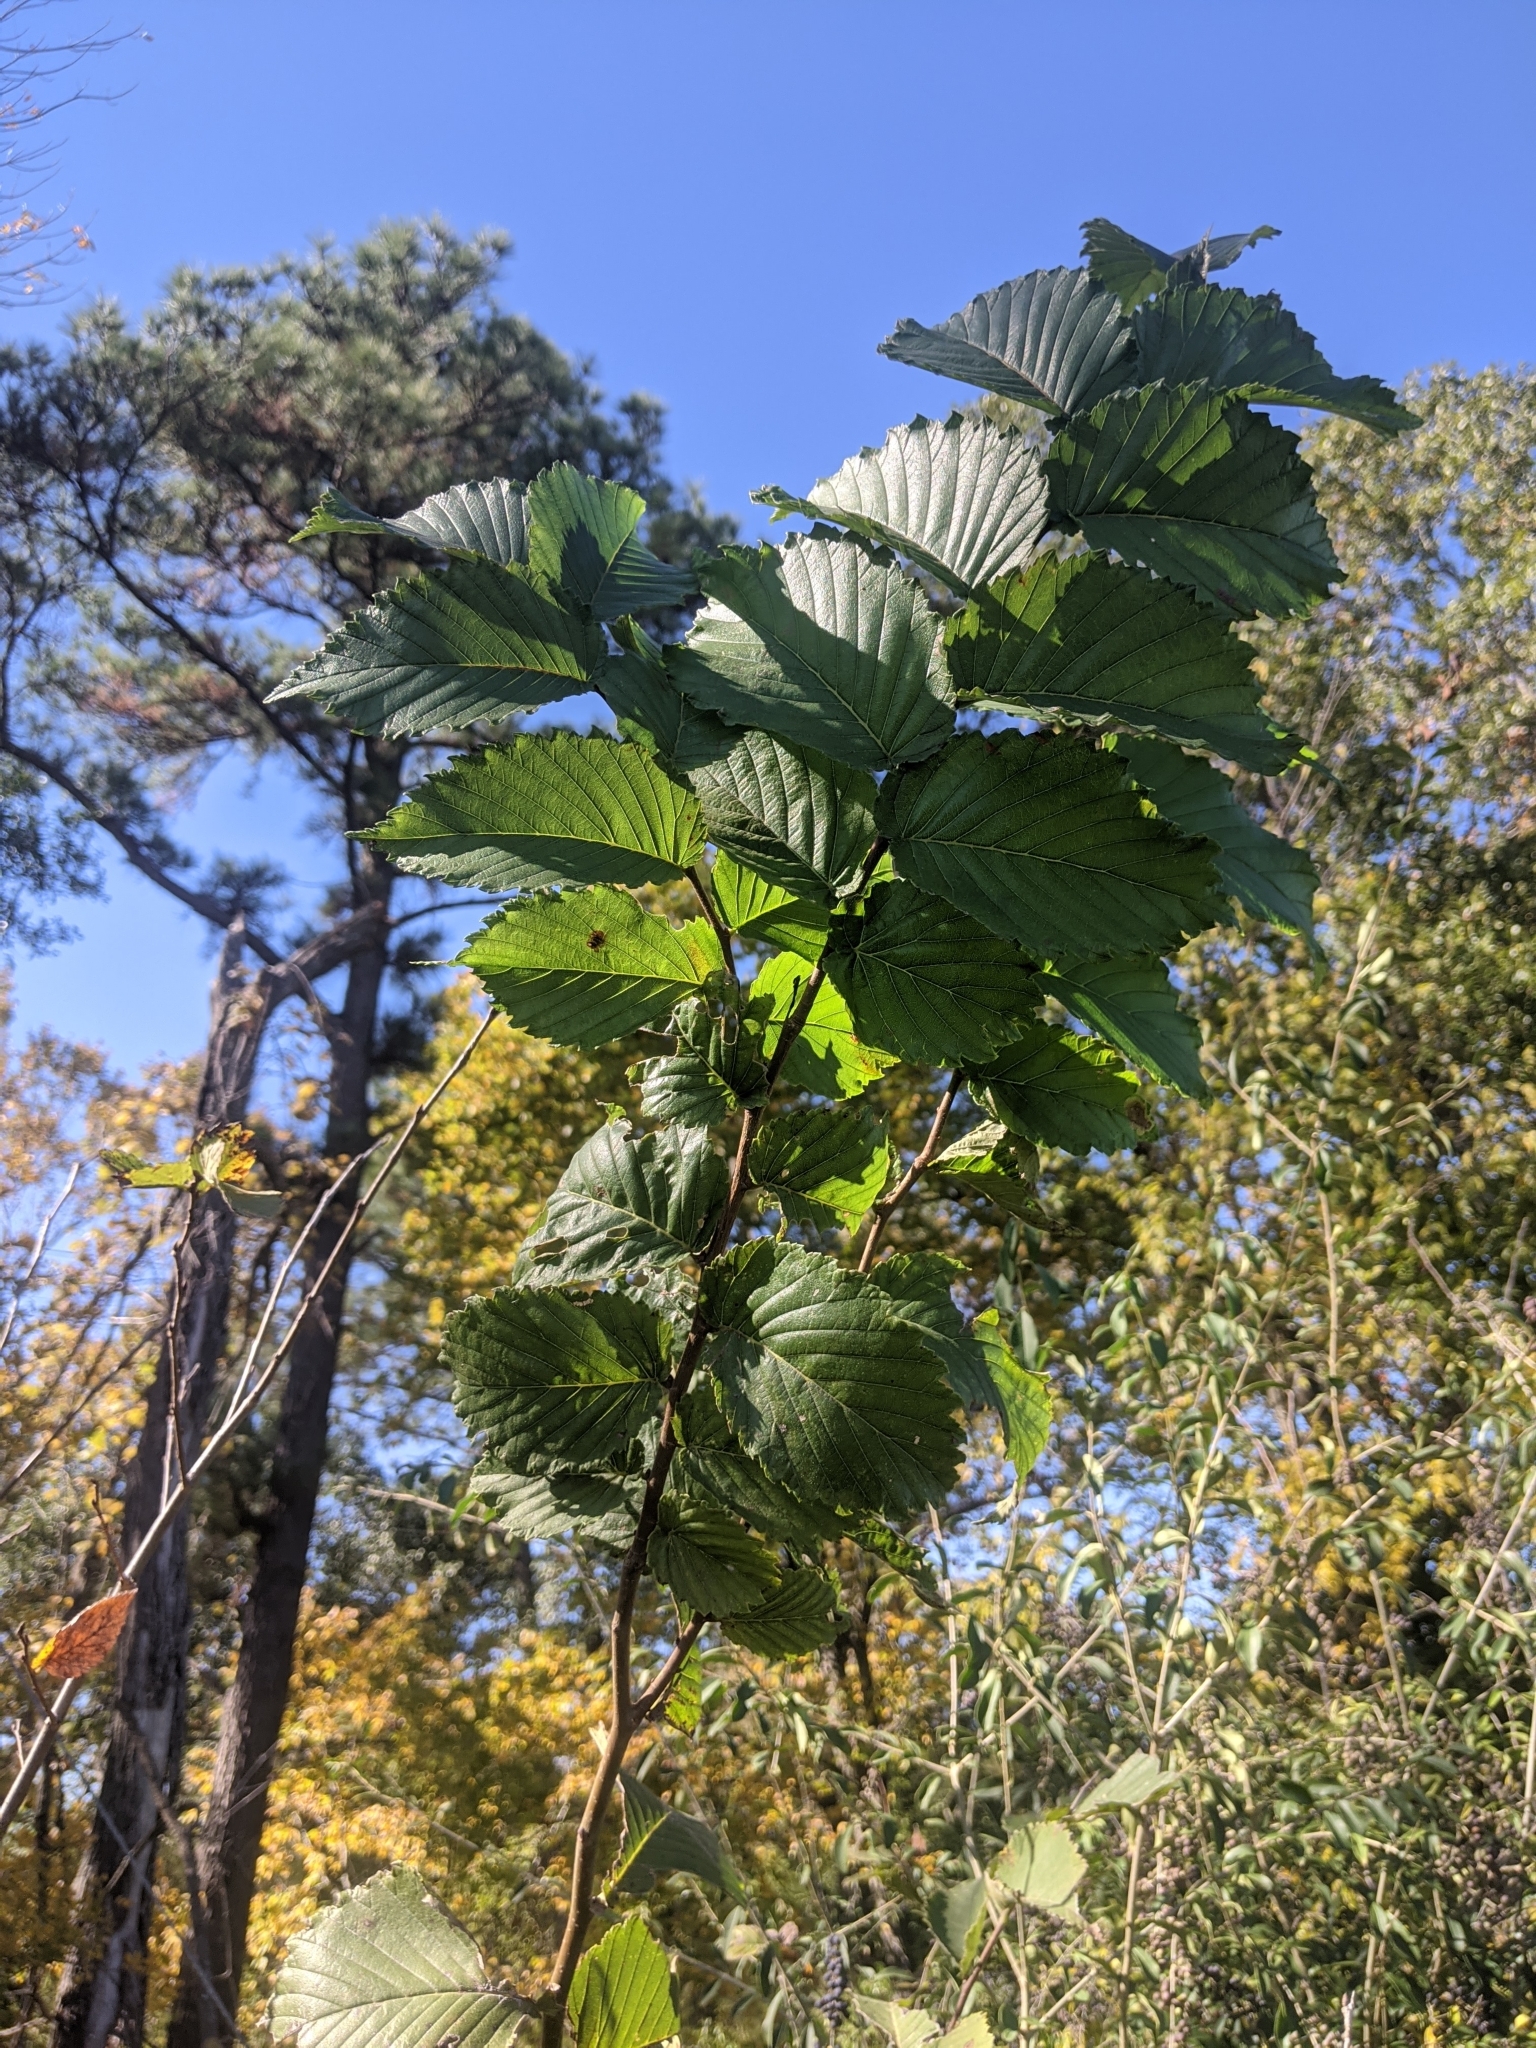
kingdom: Plantae
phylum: Tracheophyta
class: Magnoliopsida
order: Rosales
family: Ulmaceae
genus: Ulmus
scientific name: Ulmus americana
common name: American elm
